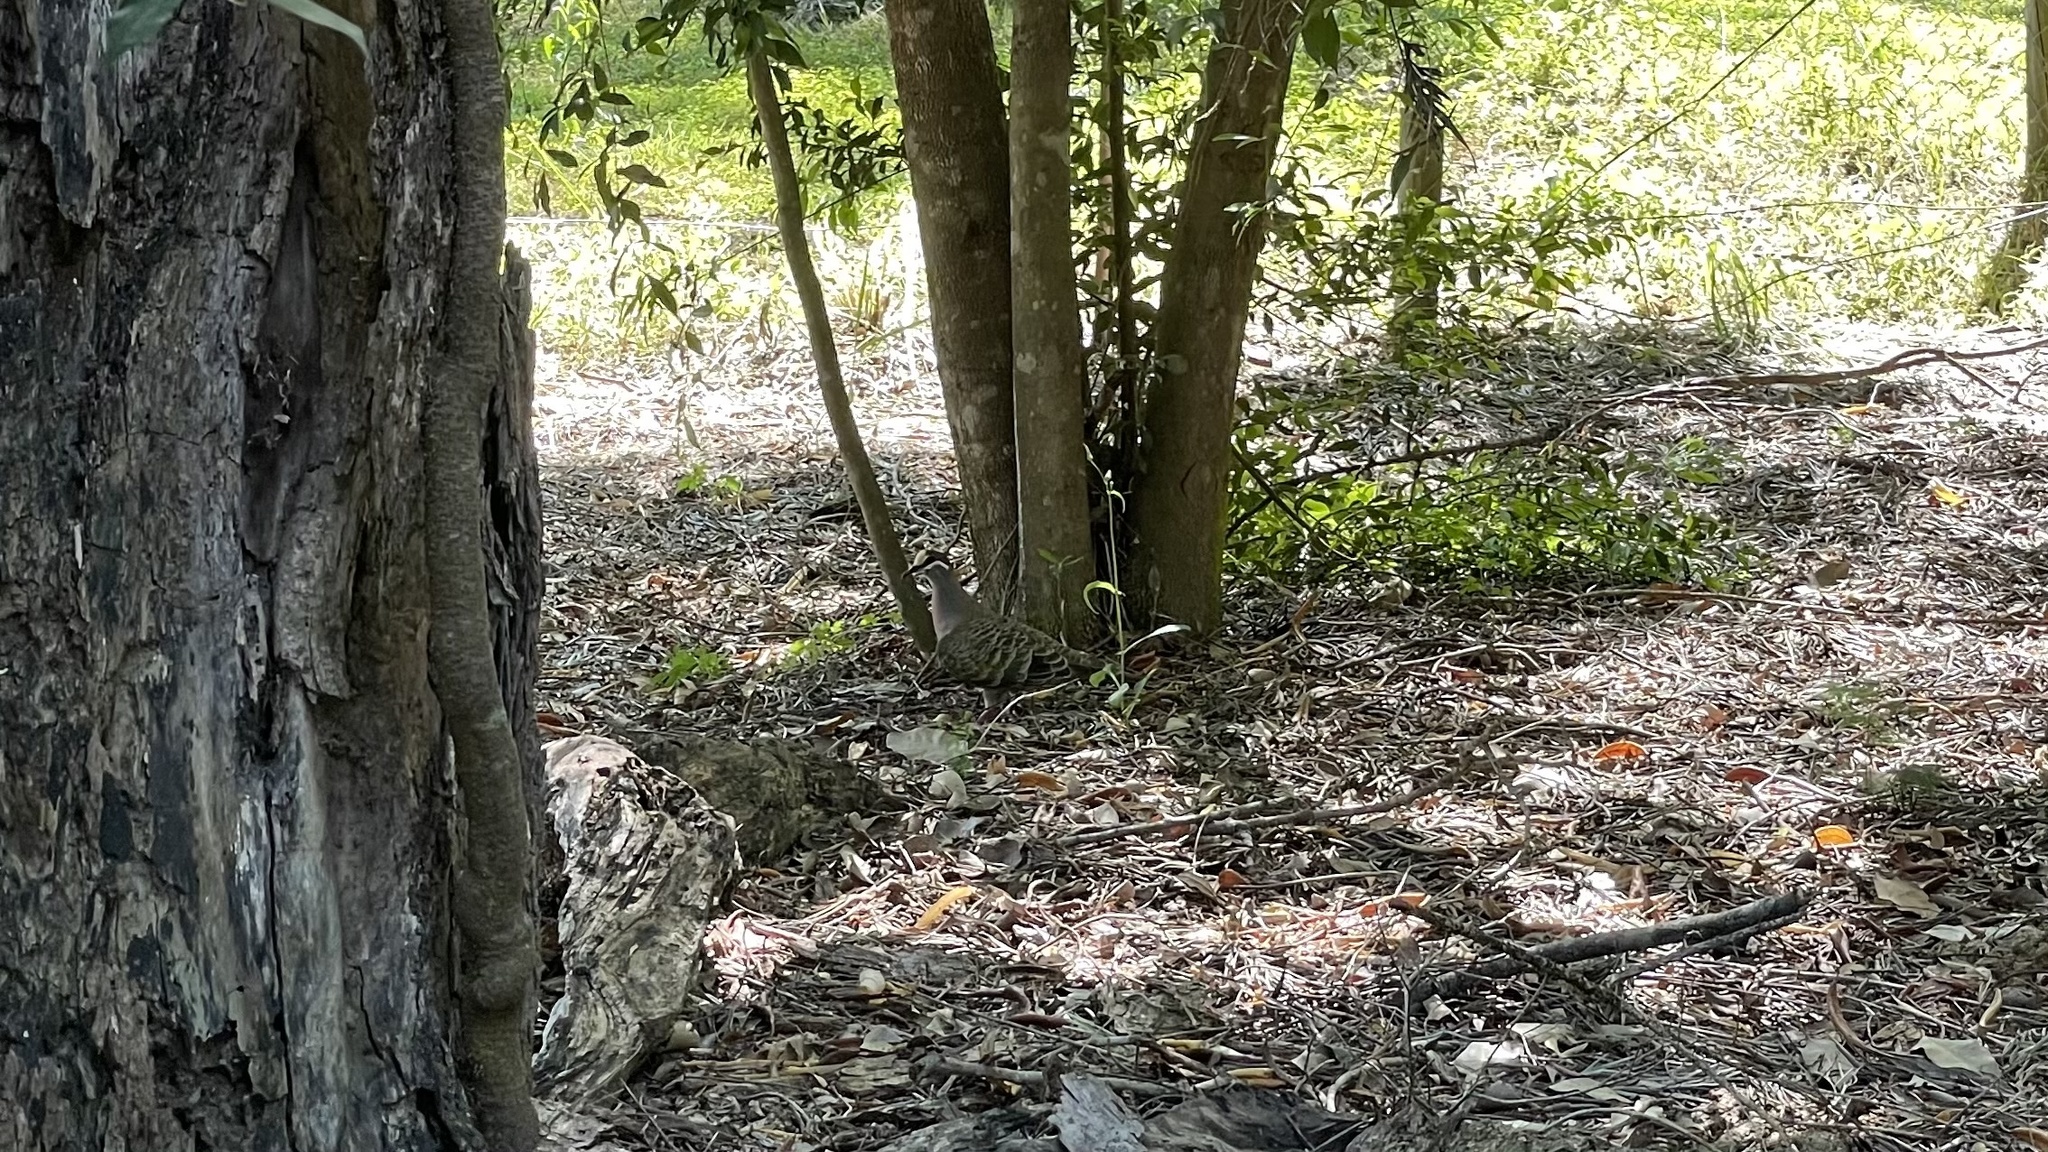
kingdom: Animalia
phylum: Chordata
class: Aves
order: Columbiformes
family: Columbidae
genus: Phaps
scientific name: Phaps chalcoptera
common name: Common bronzewing
